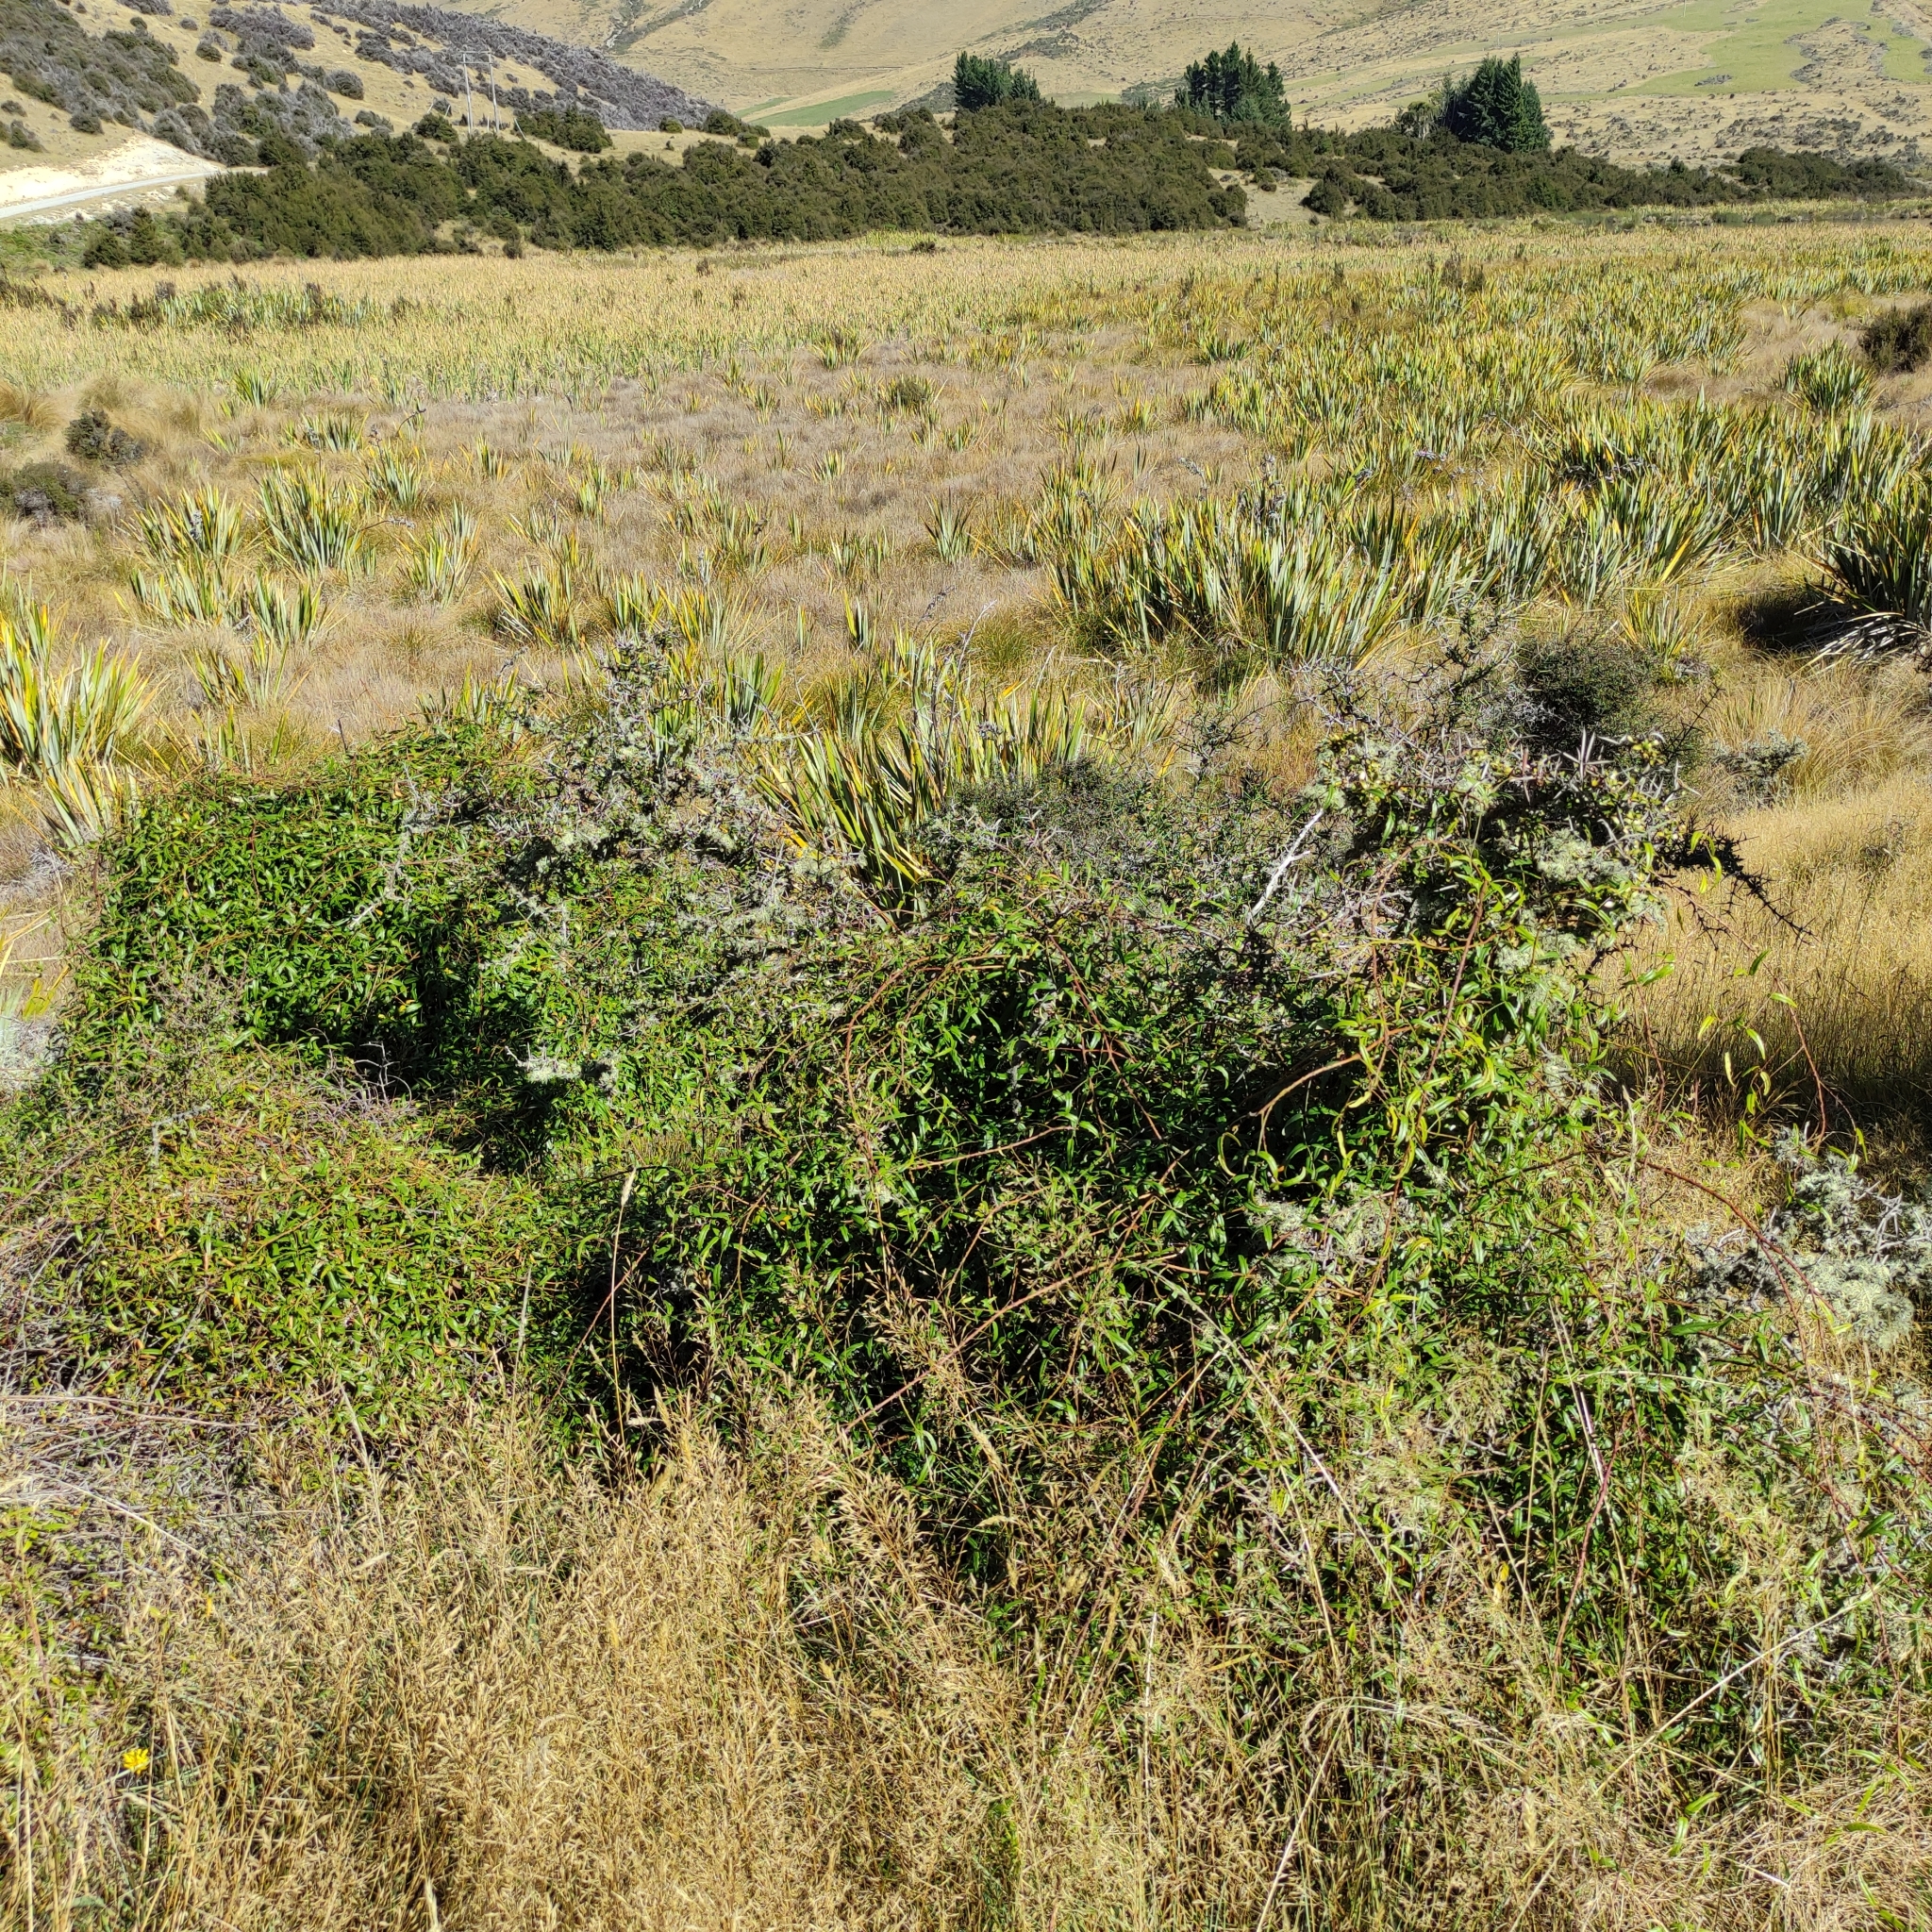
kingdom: Plantae
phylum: Tracheophyta
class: Magnoliopsida
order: Rosales
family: Rosaceae
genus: Rubus
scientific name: Rubus schmidelioides
